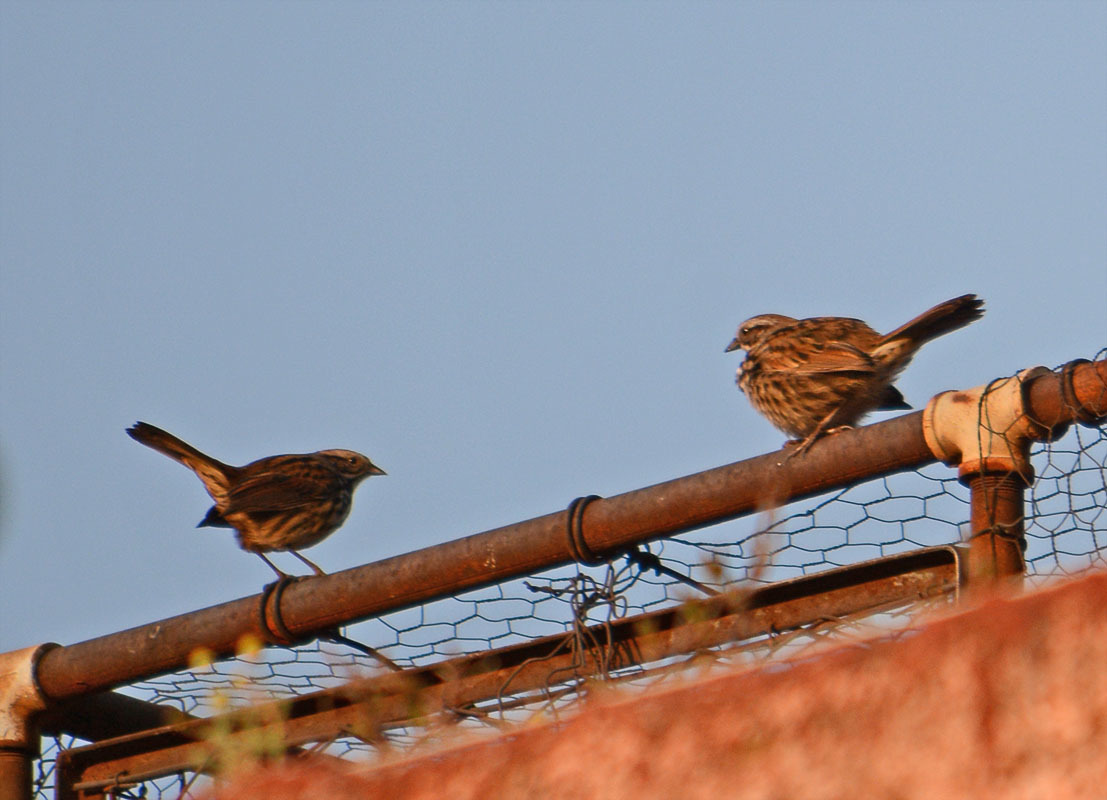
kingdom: Animalia
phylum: Chordata
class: Aves
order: Passeriformes
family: Passerellidae
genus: Melospiza
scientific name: Melospiza melodia
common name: Song sparrow
